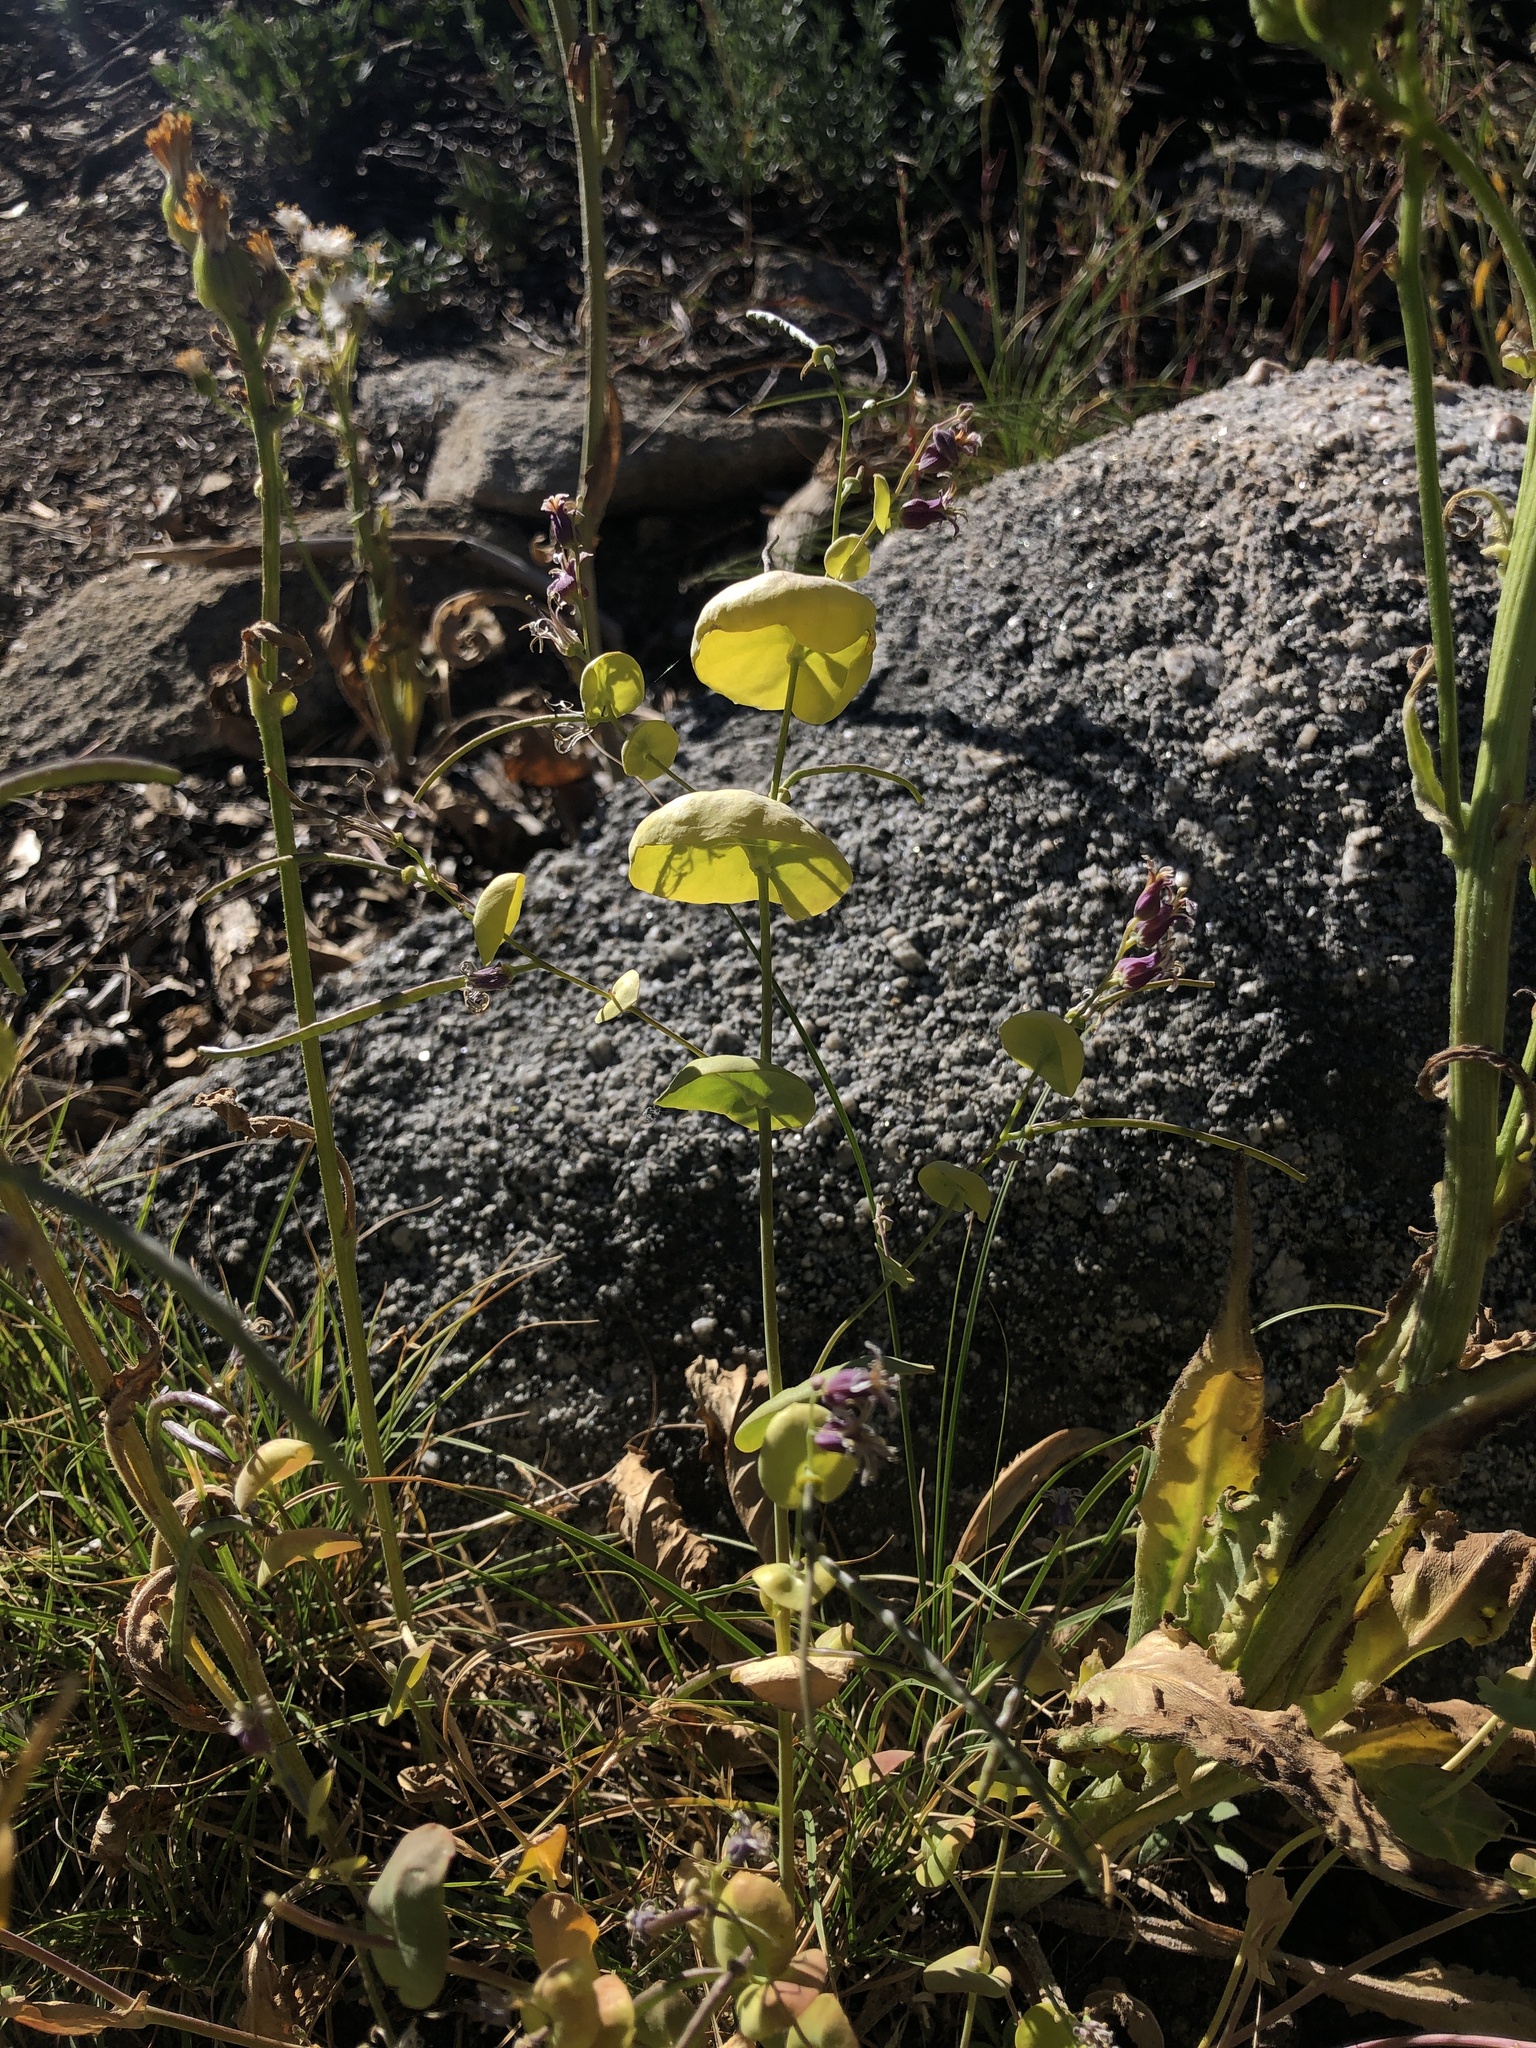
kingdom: Plantae
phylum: Tracheophyta
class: Magnoliopsida
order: Brassicales
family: Brassicaceae
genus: Streptanthus
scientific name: Streptanthus tortuosus
